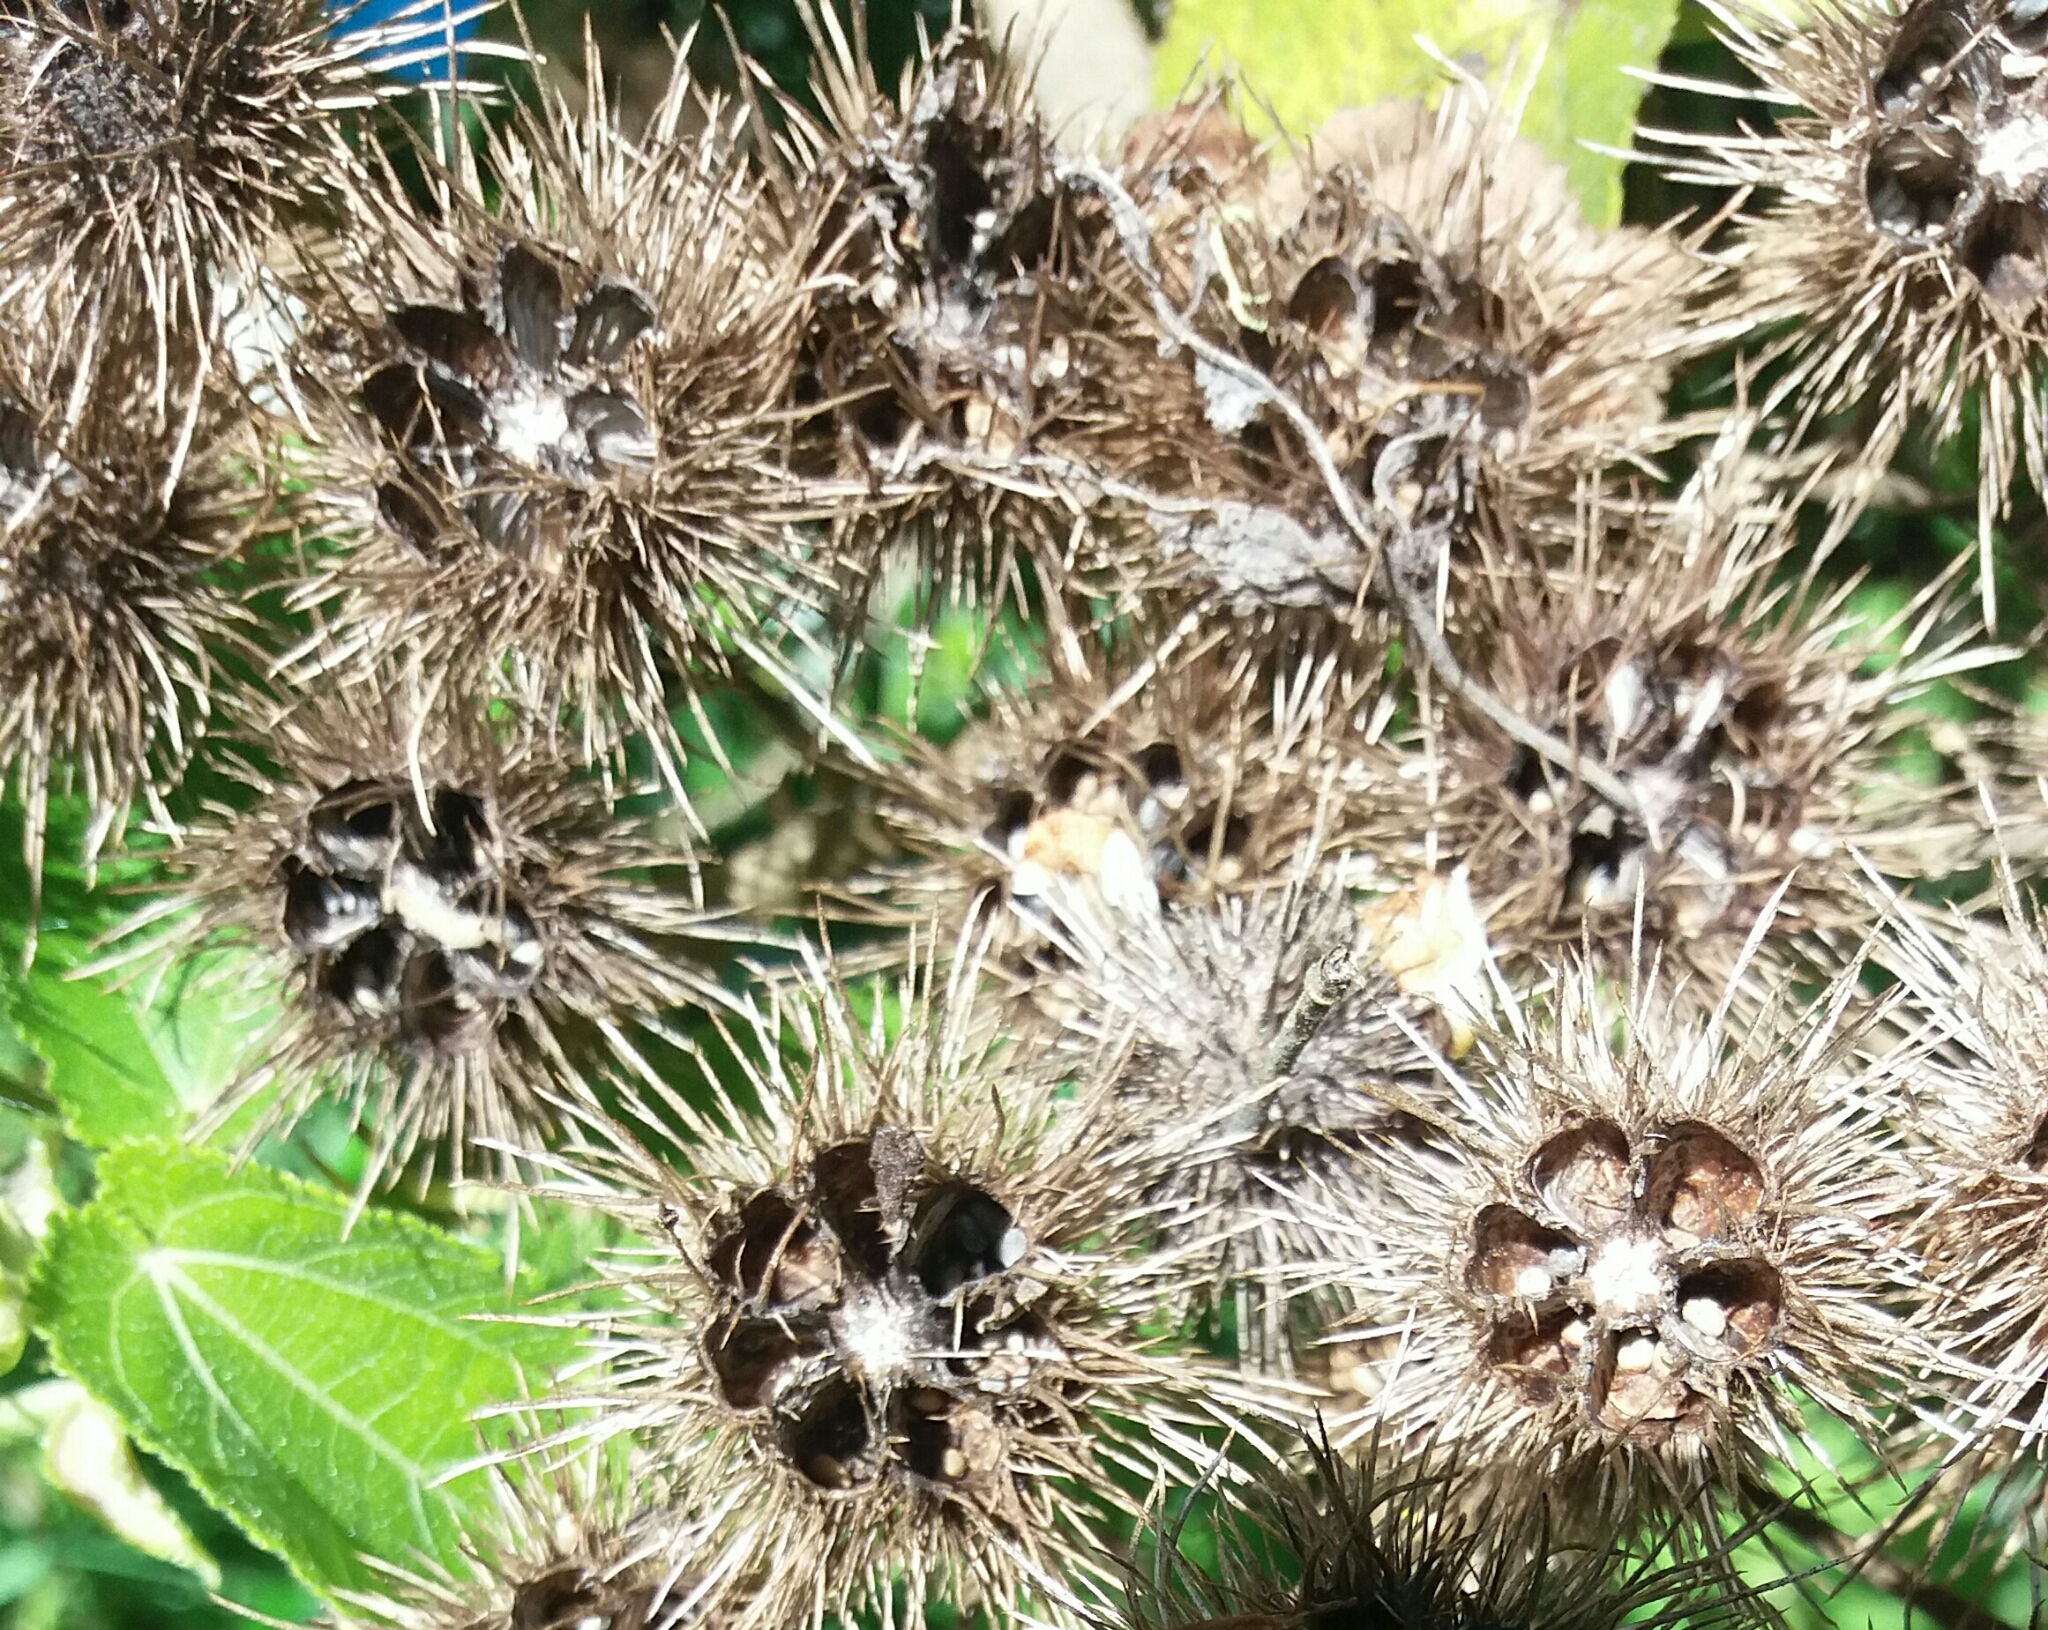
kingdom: Plantae
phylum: Tracheophyta
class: Magnoliopsida
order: Malvales
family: Malvaceae
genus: Entelea
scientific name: Entelea arborescens
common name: New zealand-mulberry
